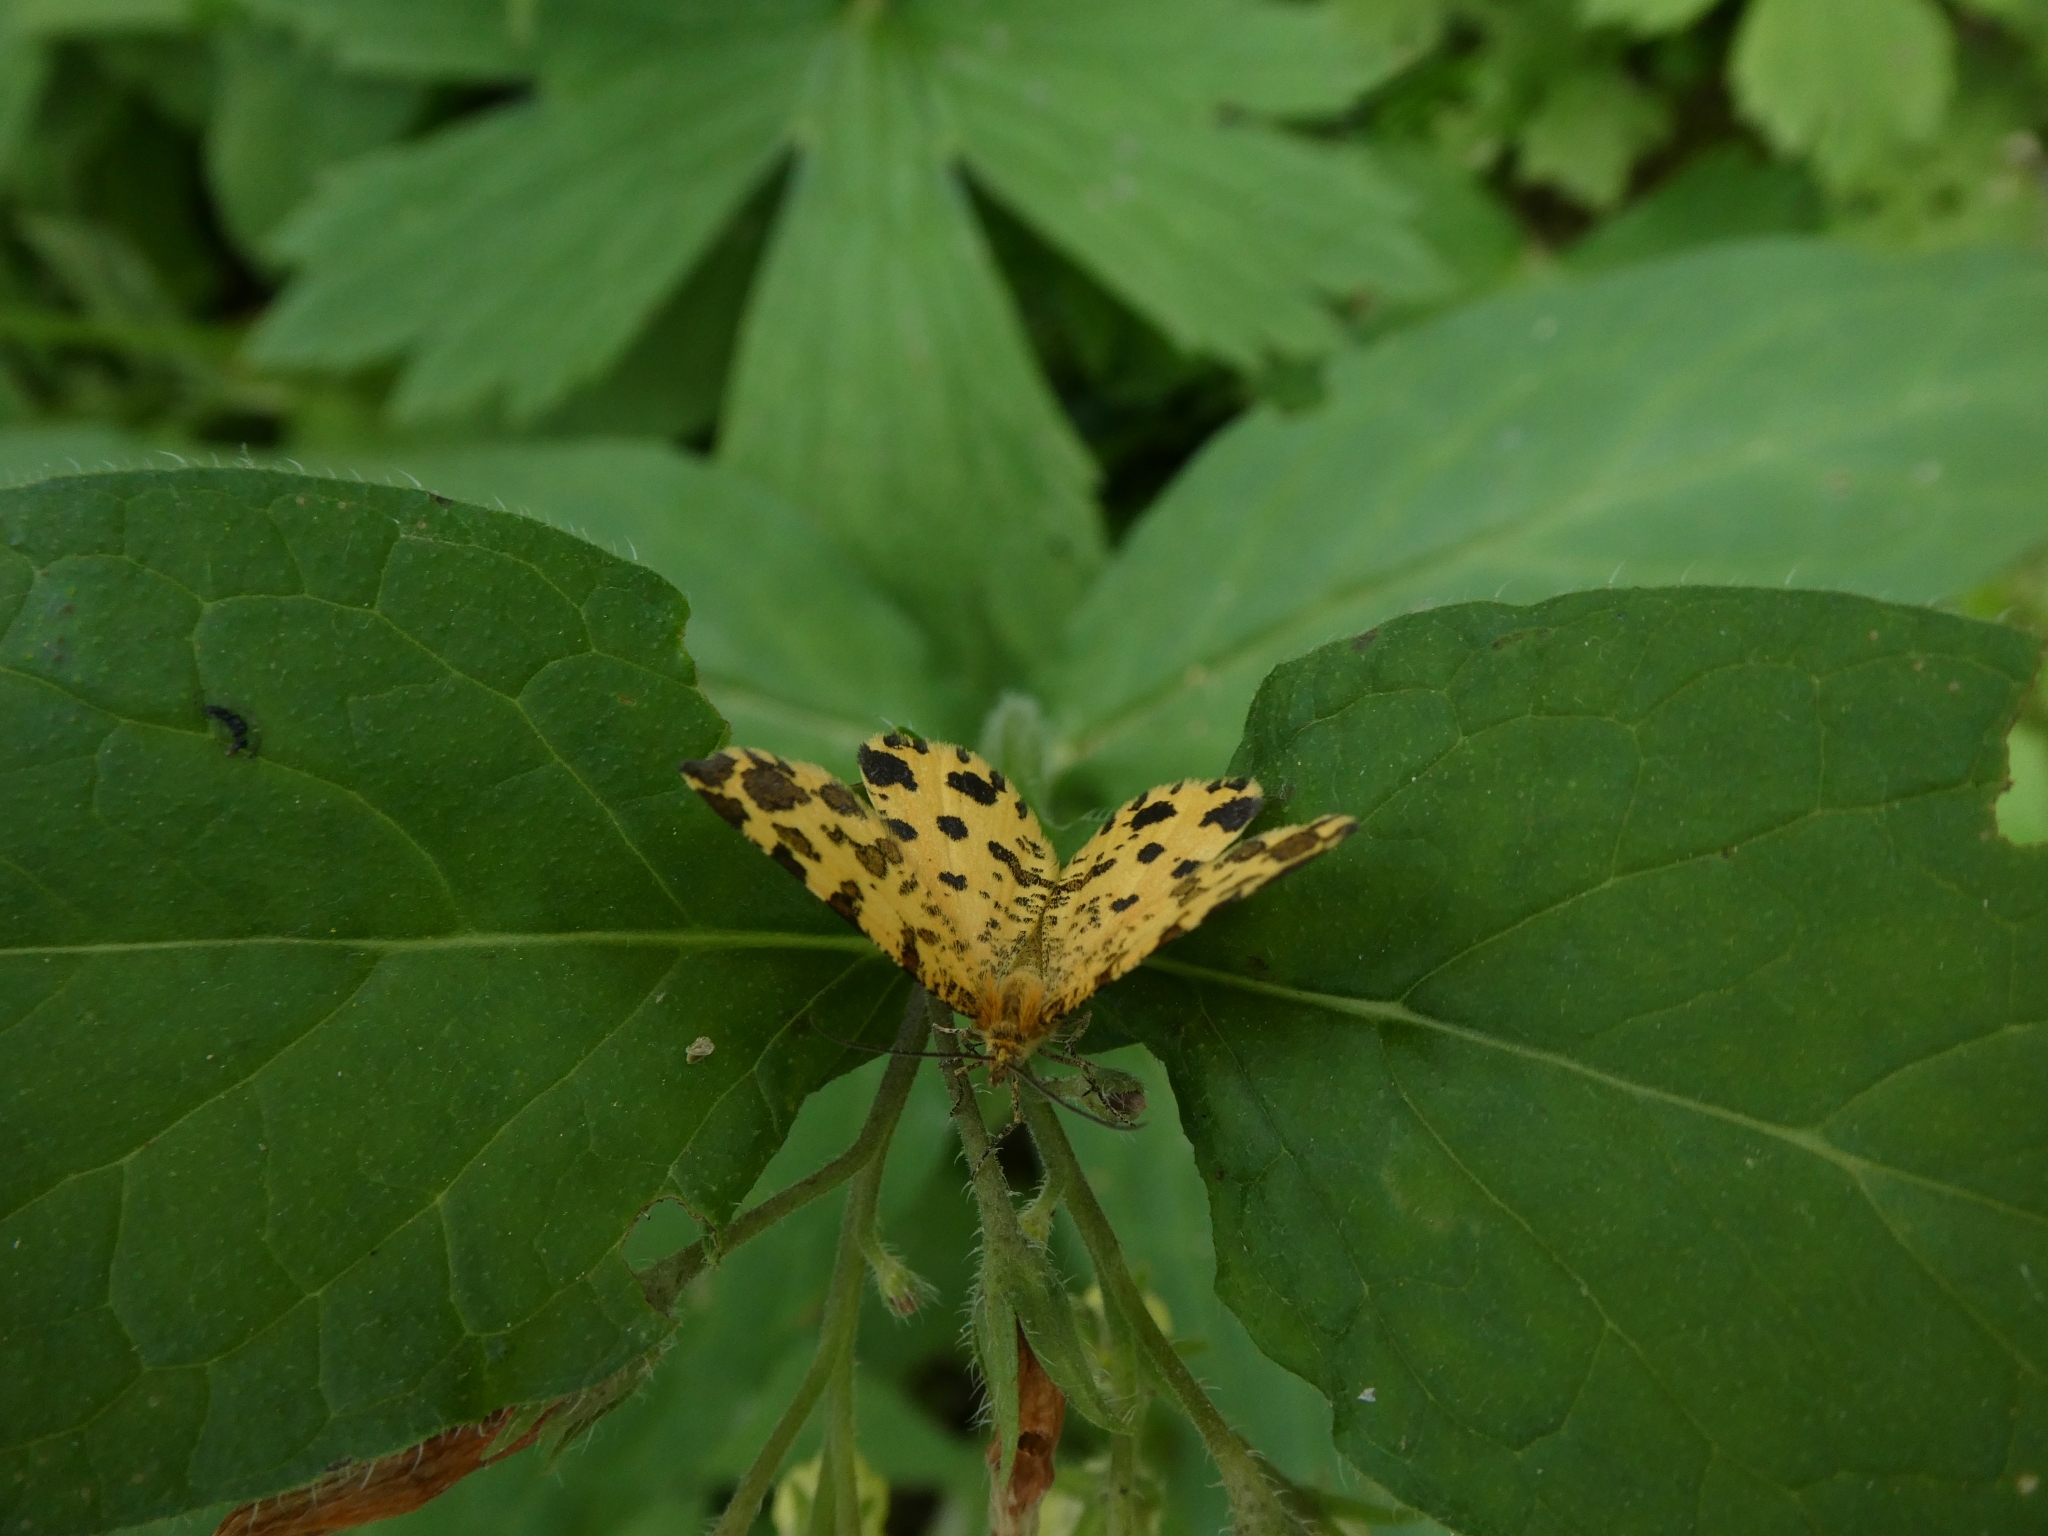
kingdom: Animalia
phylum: Arthropoda
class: Insecta
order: Lepidoptera
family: Geometridae
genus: Pseudopanthera
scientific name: Pseudopanthera macularia
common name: Speckled yellow
